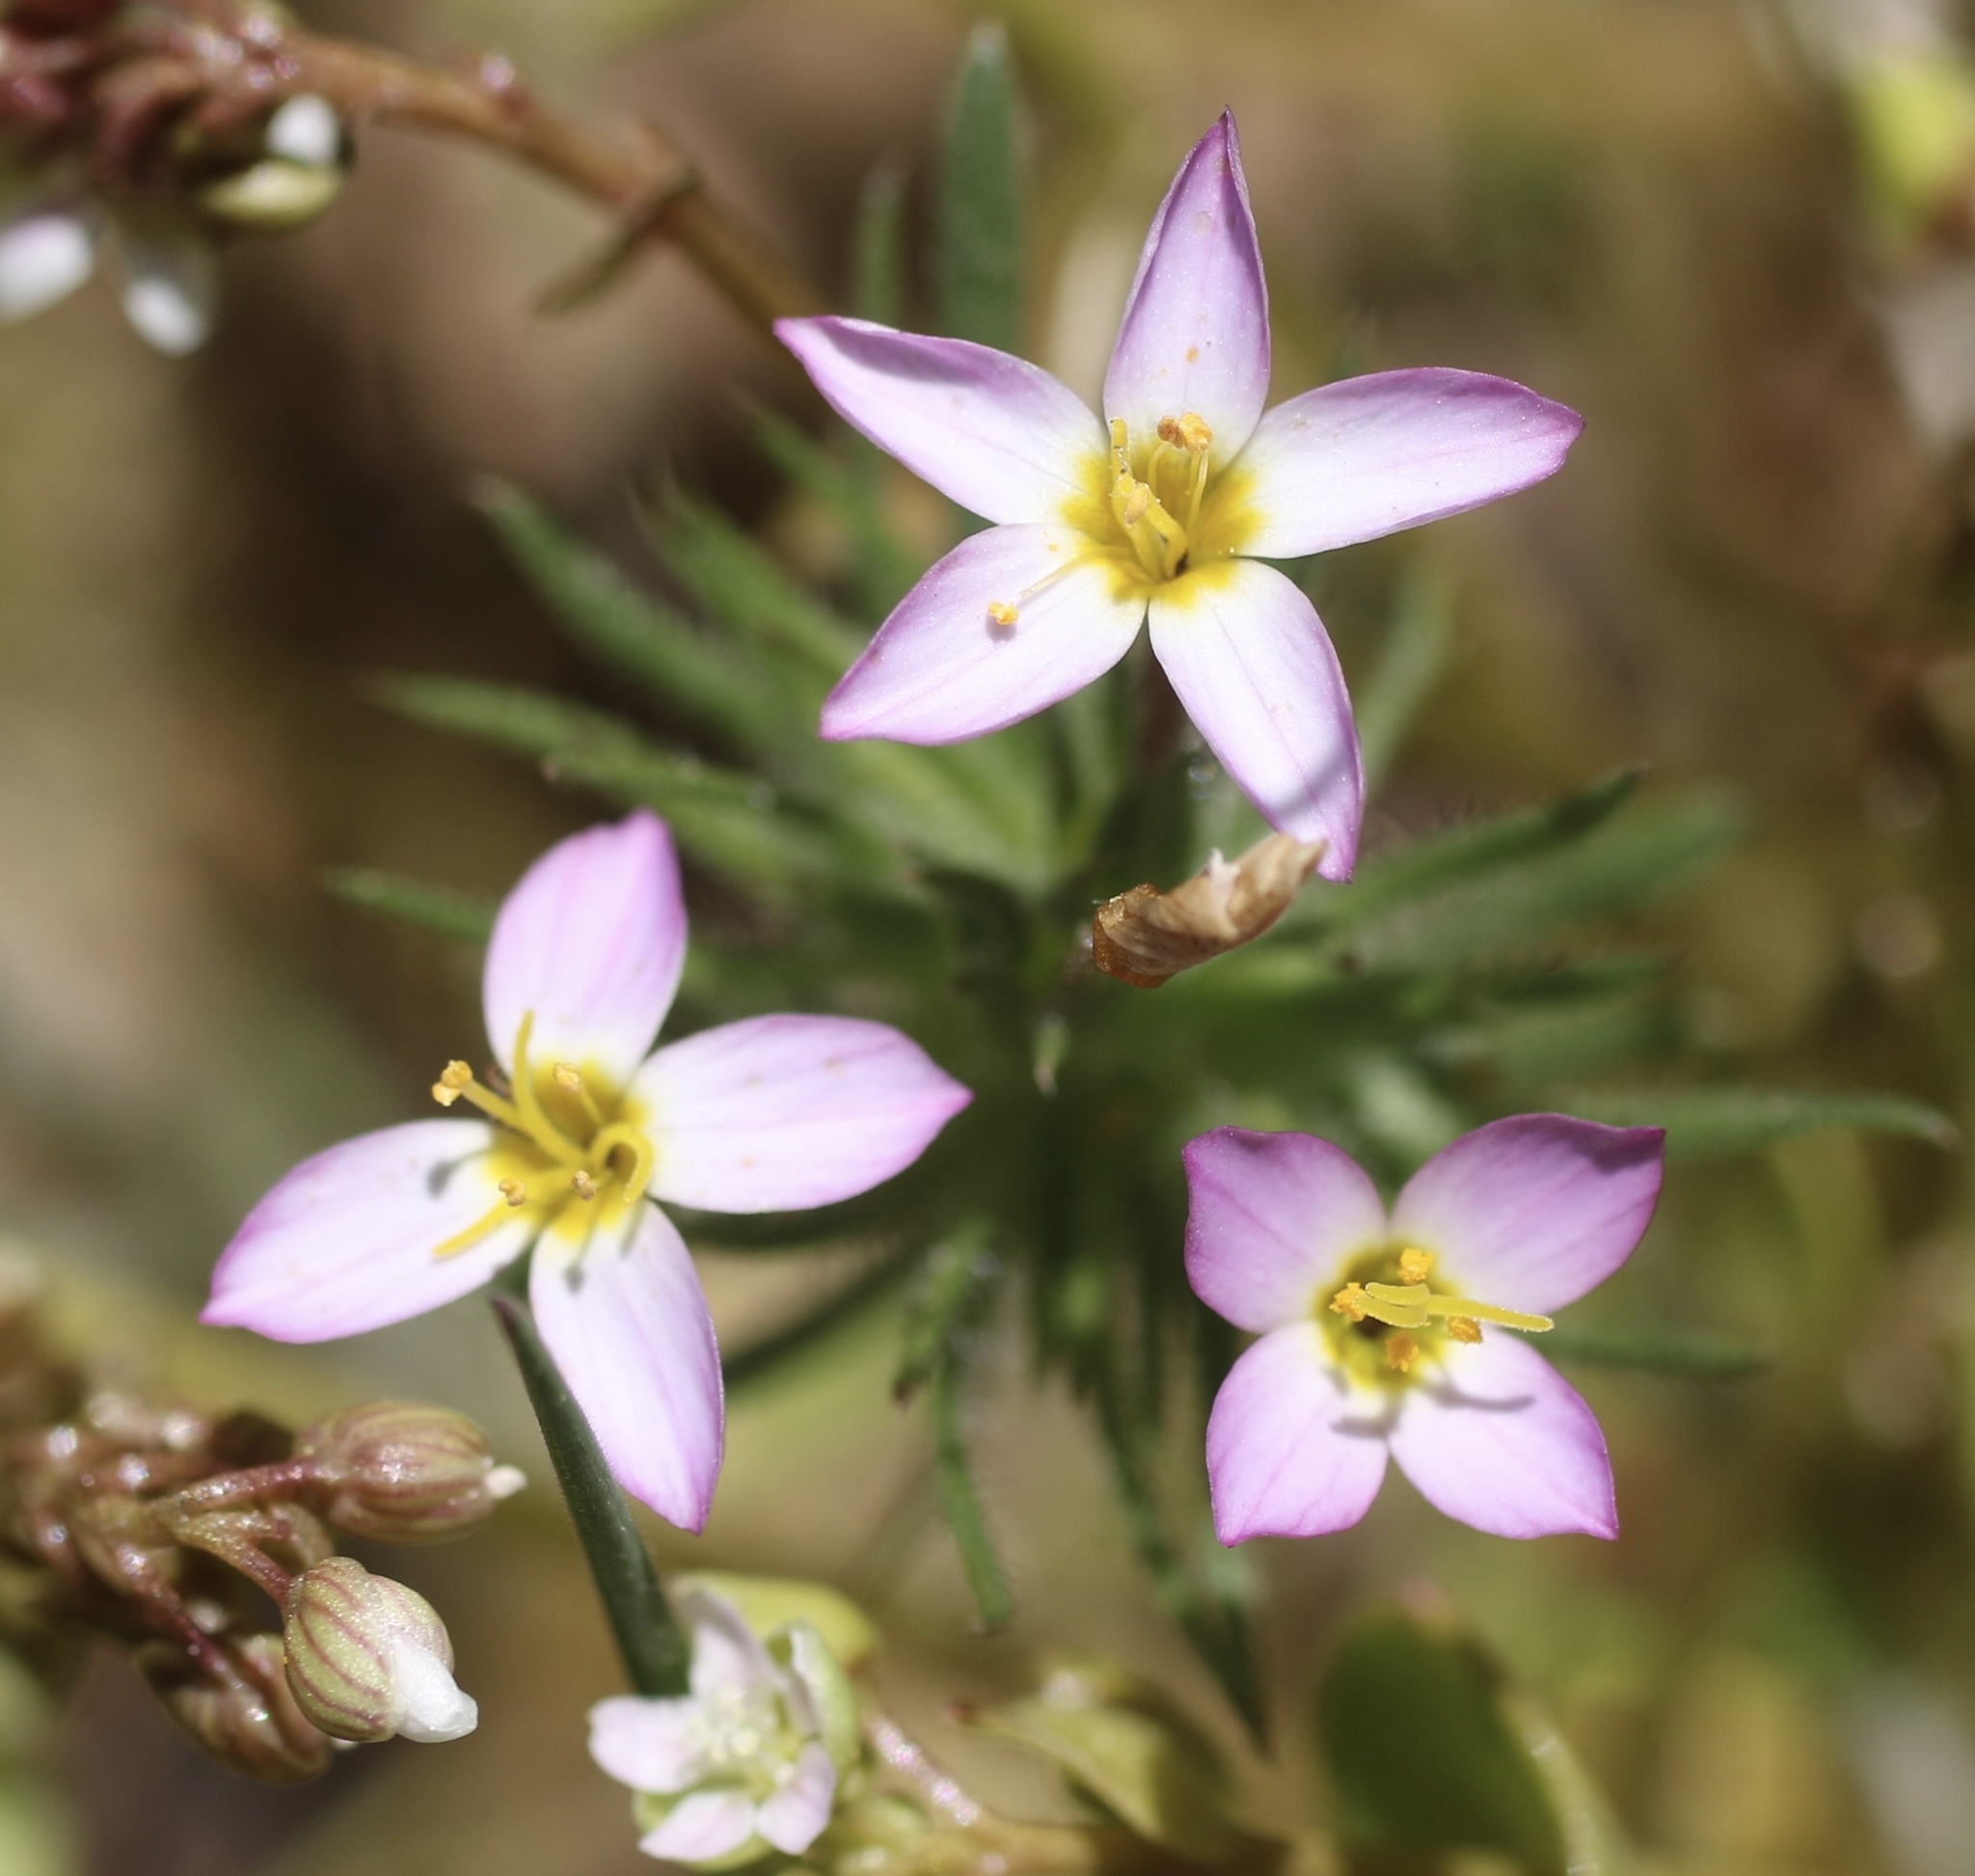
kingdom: Plantae
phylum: Tracheophyta
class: Magnoliopsida
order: Ericales
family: Polemoniaceae
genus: Leptosiphon
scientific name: Leptosiphon ciliatus
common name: Whiskerbrush
